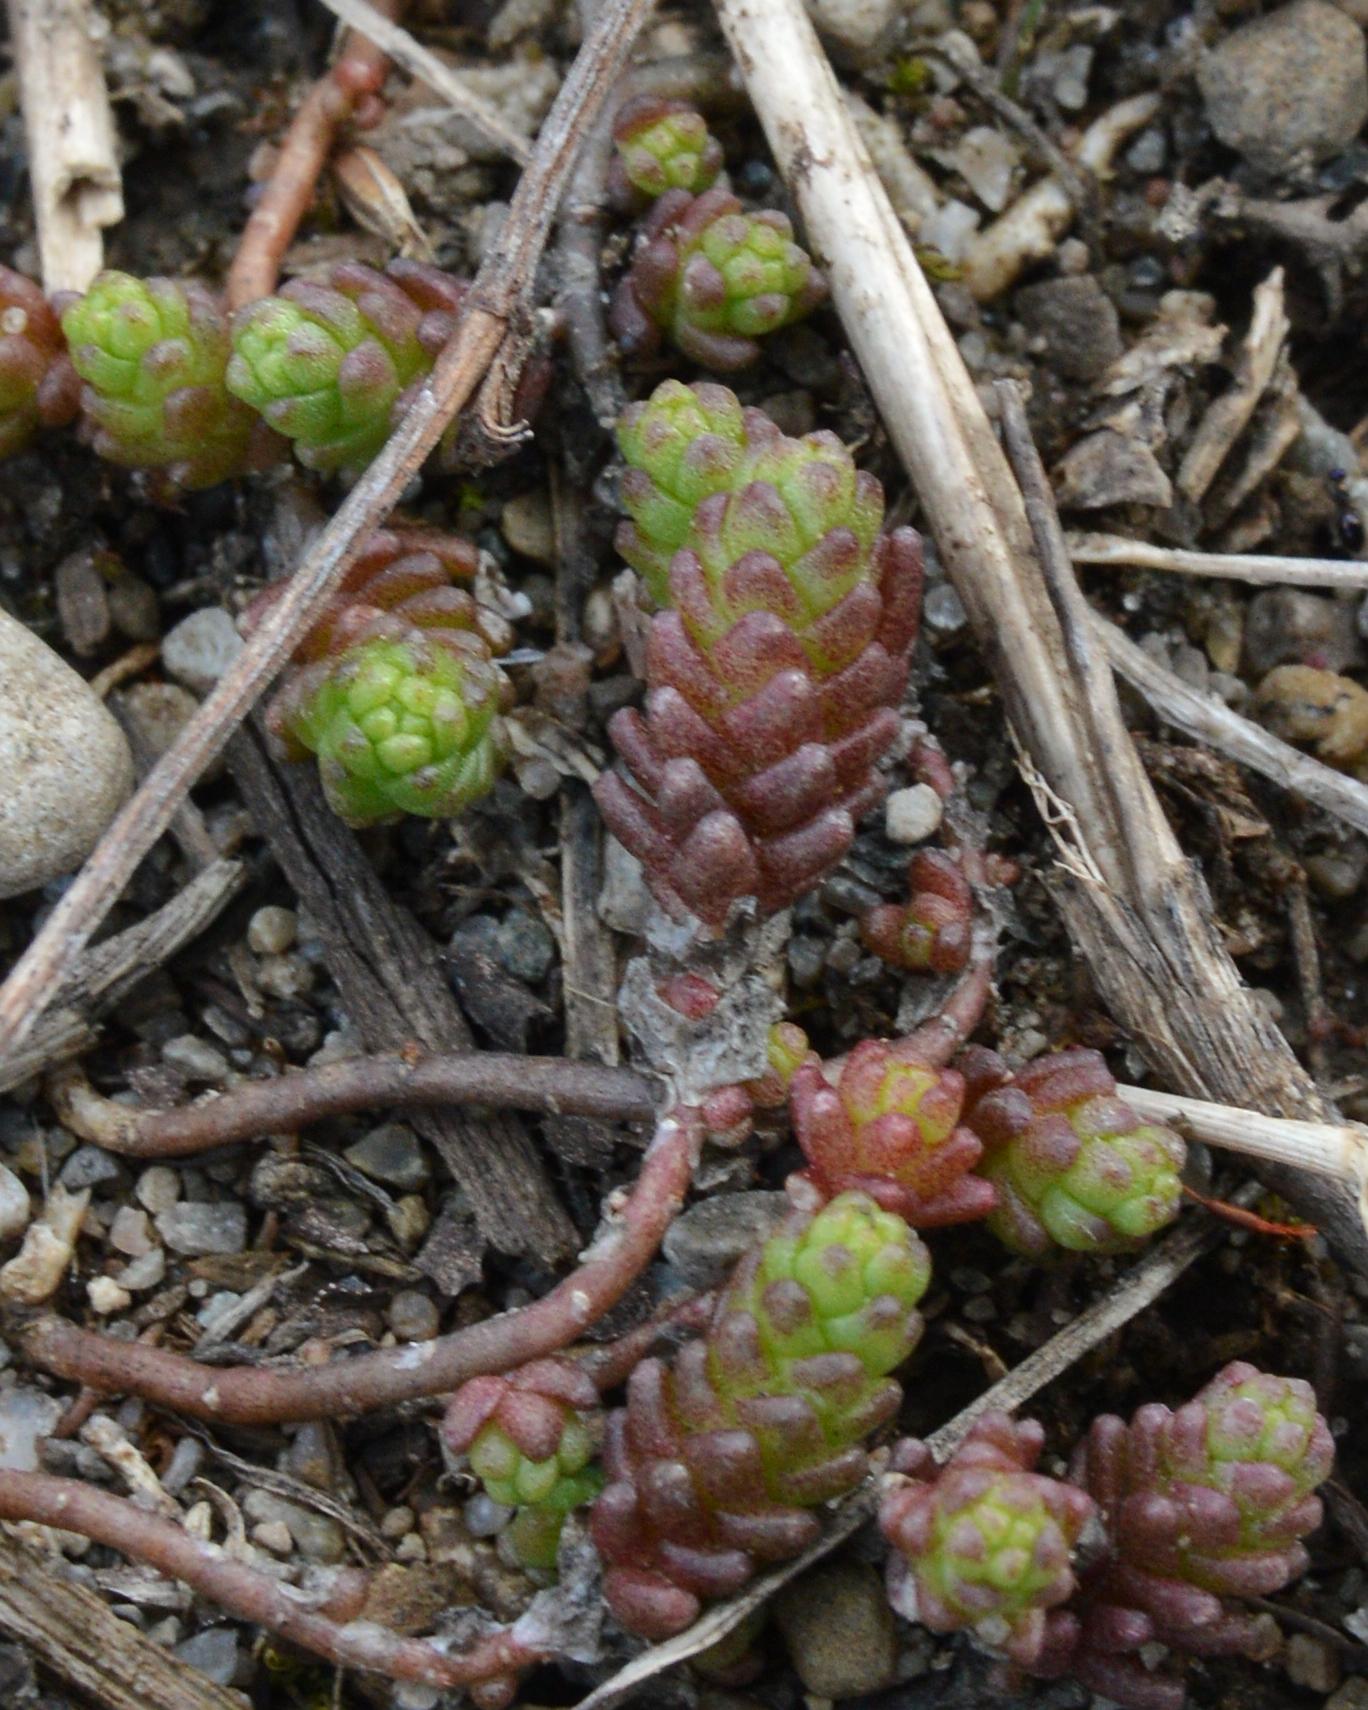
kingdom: Plantae
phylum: Tracheophyta
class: Magnoliopsida
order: Saxifragales
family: Crassulaceae
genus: Sedum
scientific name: Sedum acre
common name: Biting stonecrop
